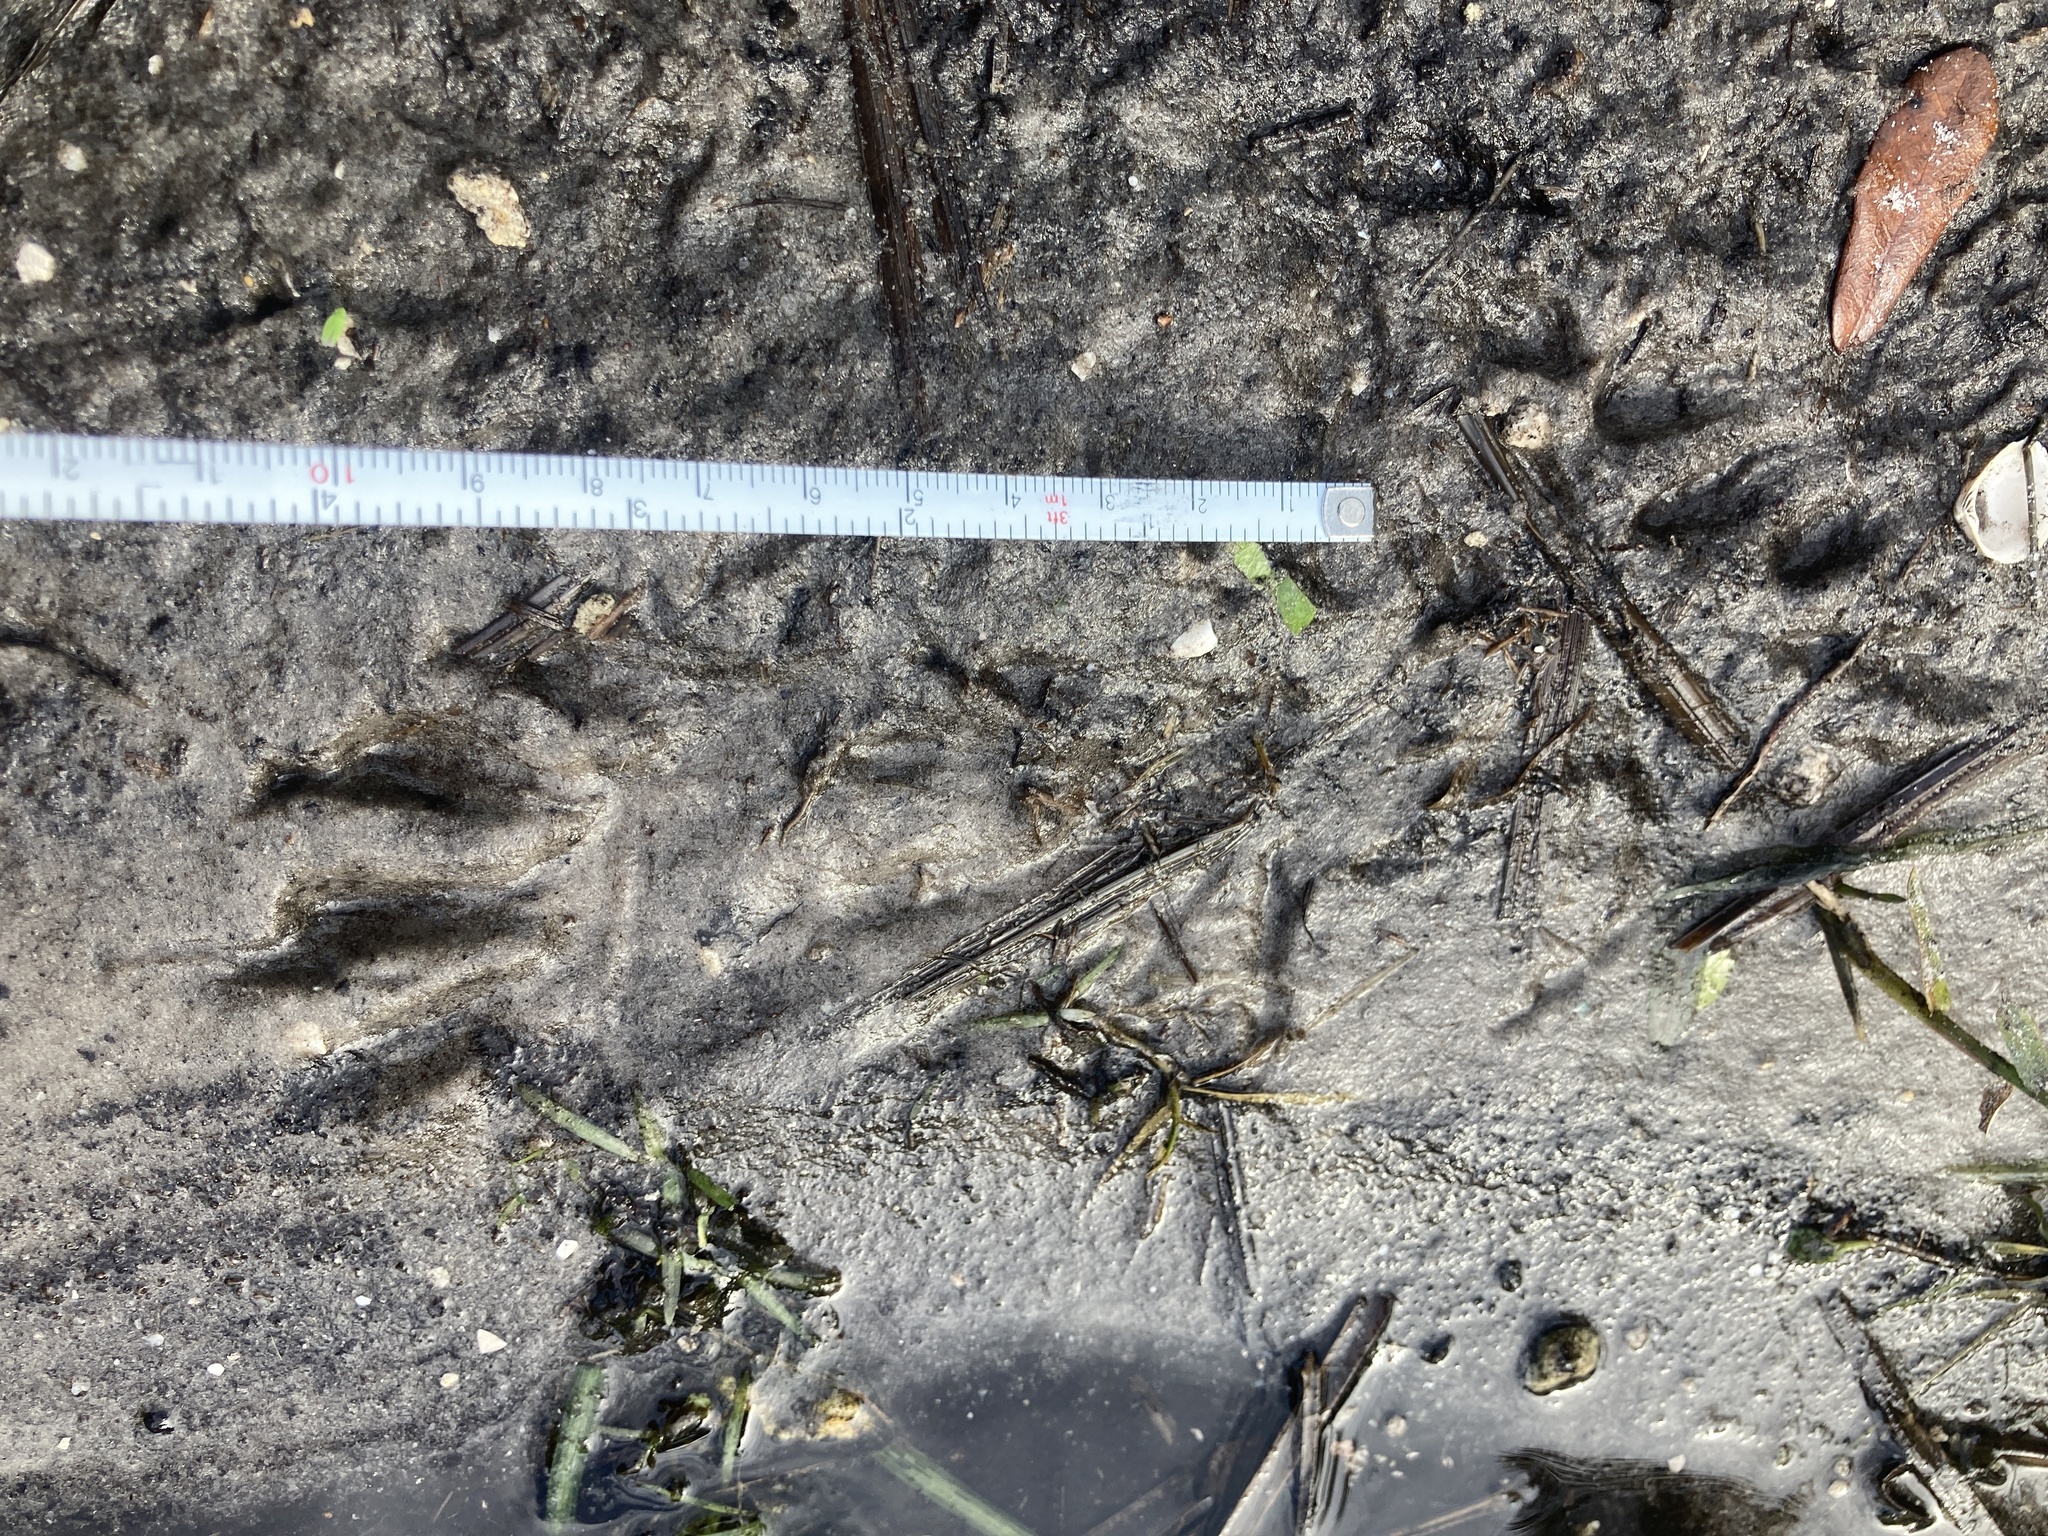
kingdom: Animalia
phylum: Chordata
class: Mammalia
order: Carnivora
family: Procyonidae
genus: Procyon
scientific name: Procyon lotor
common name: Raccoon
